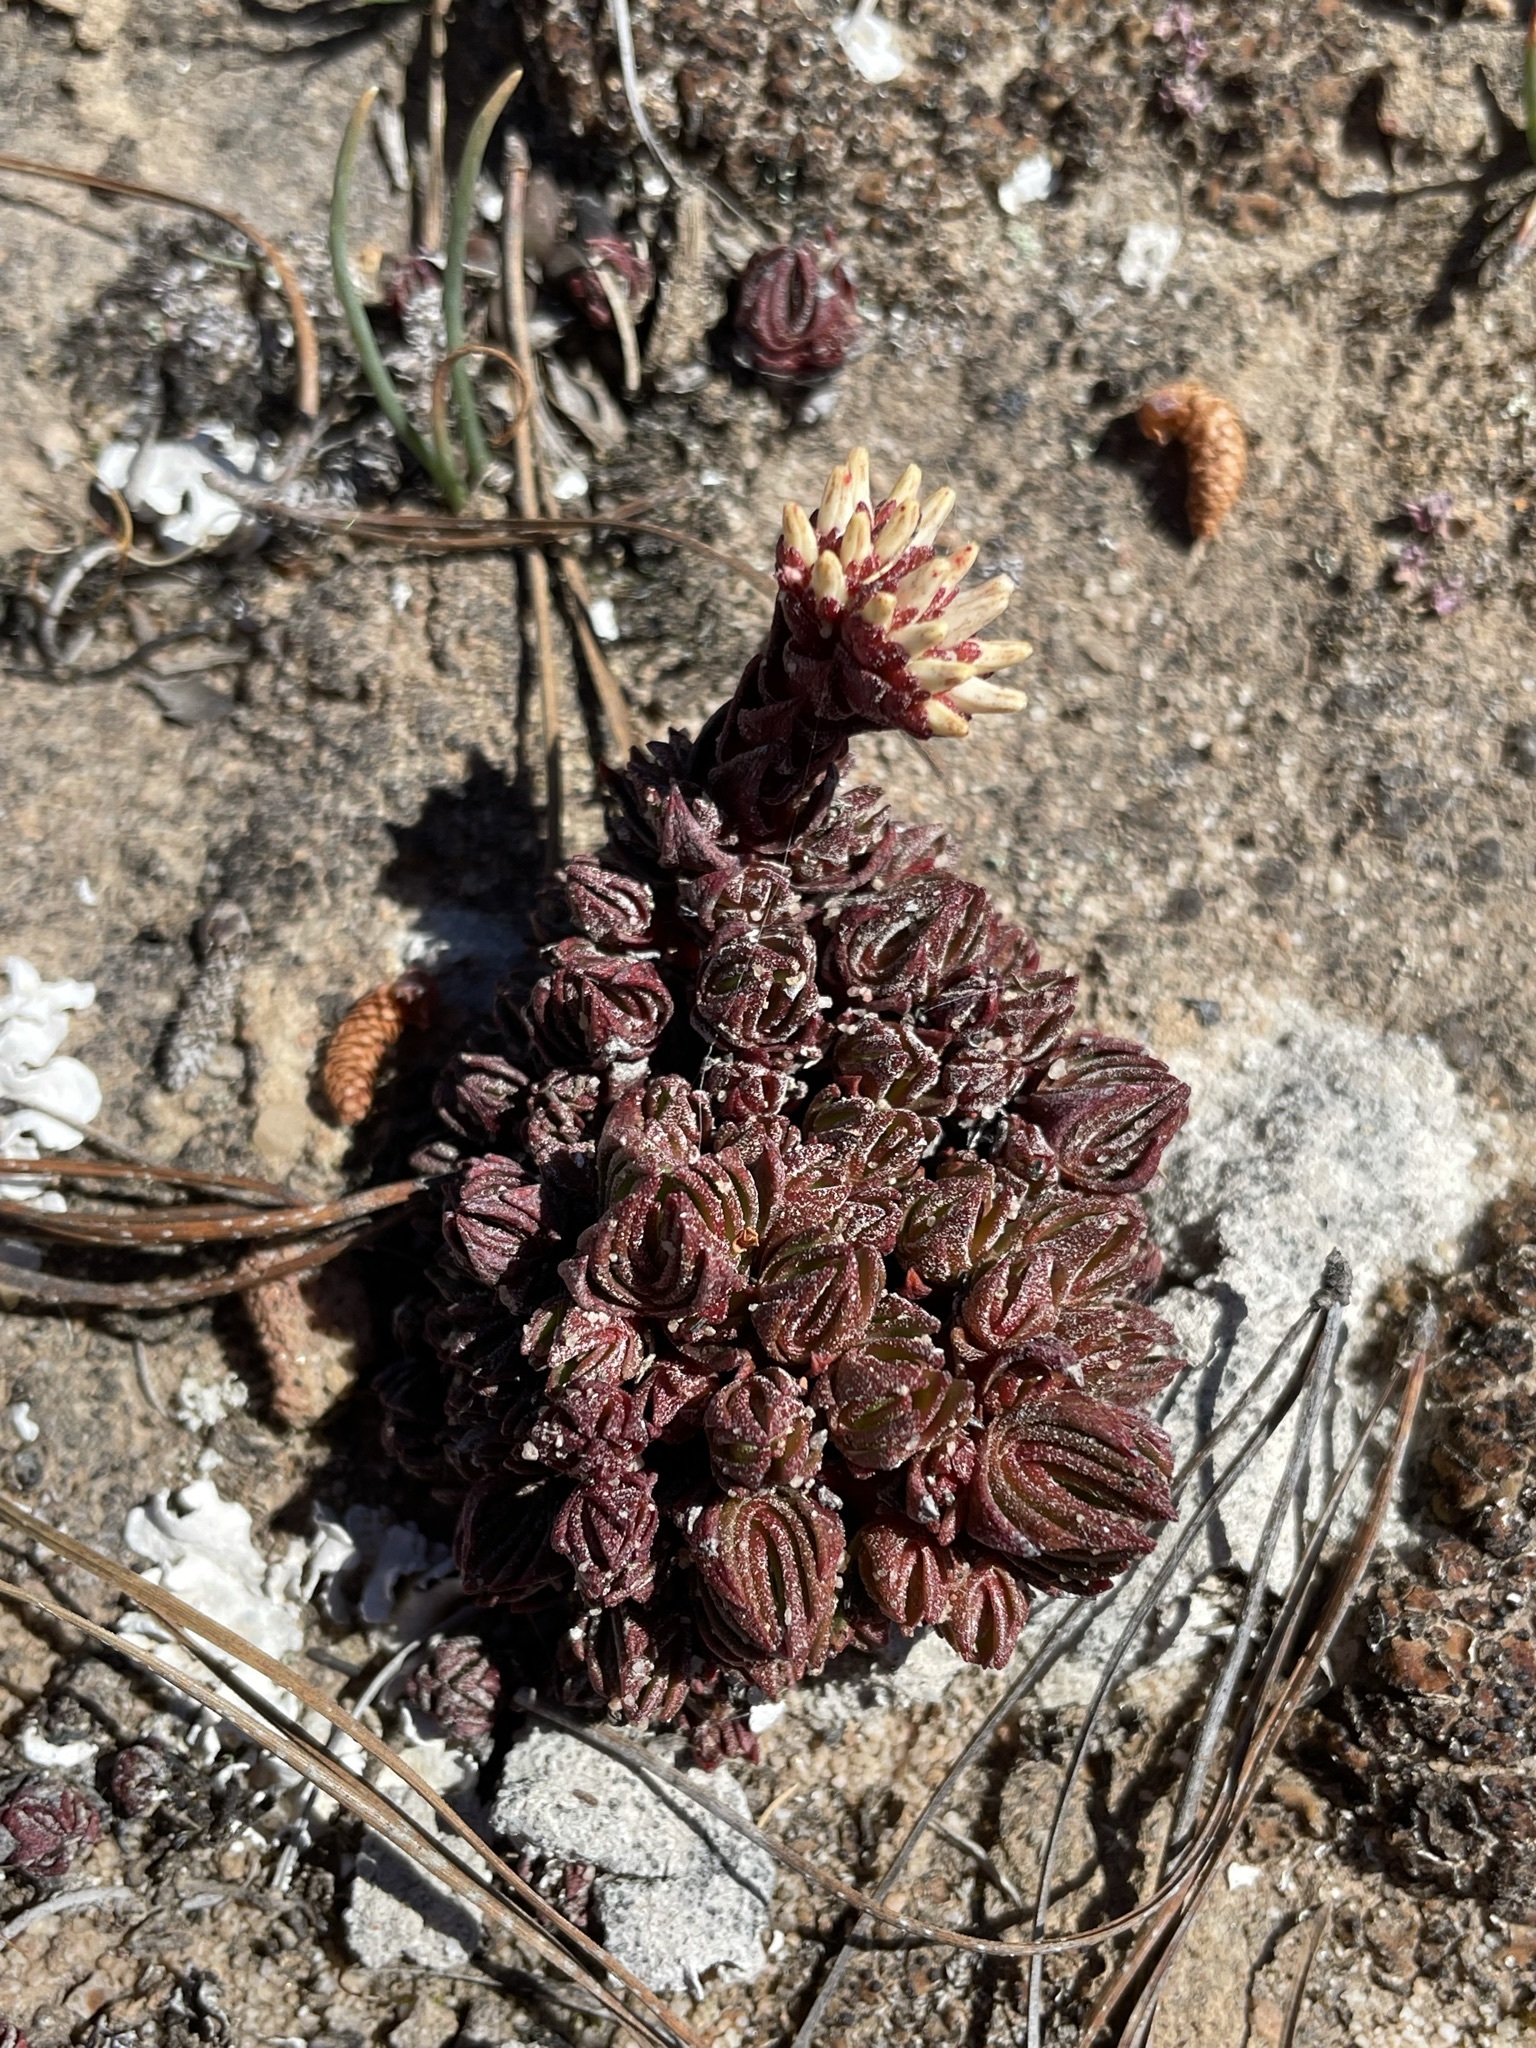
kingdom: Plantae
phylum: Tracheophyta
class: Magnoliopsida
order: Saxifragales
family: Crassulaceae
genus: Crassula
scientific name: Crassula alpestris
